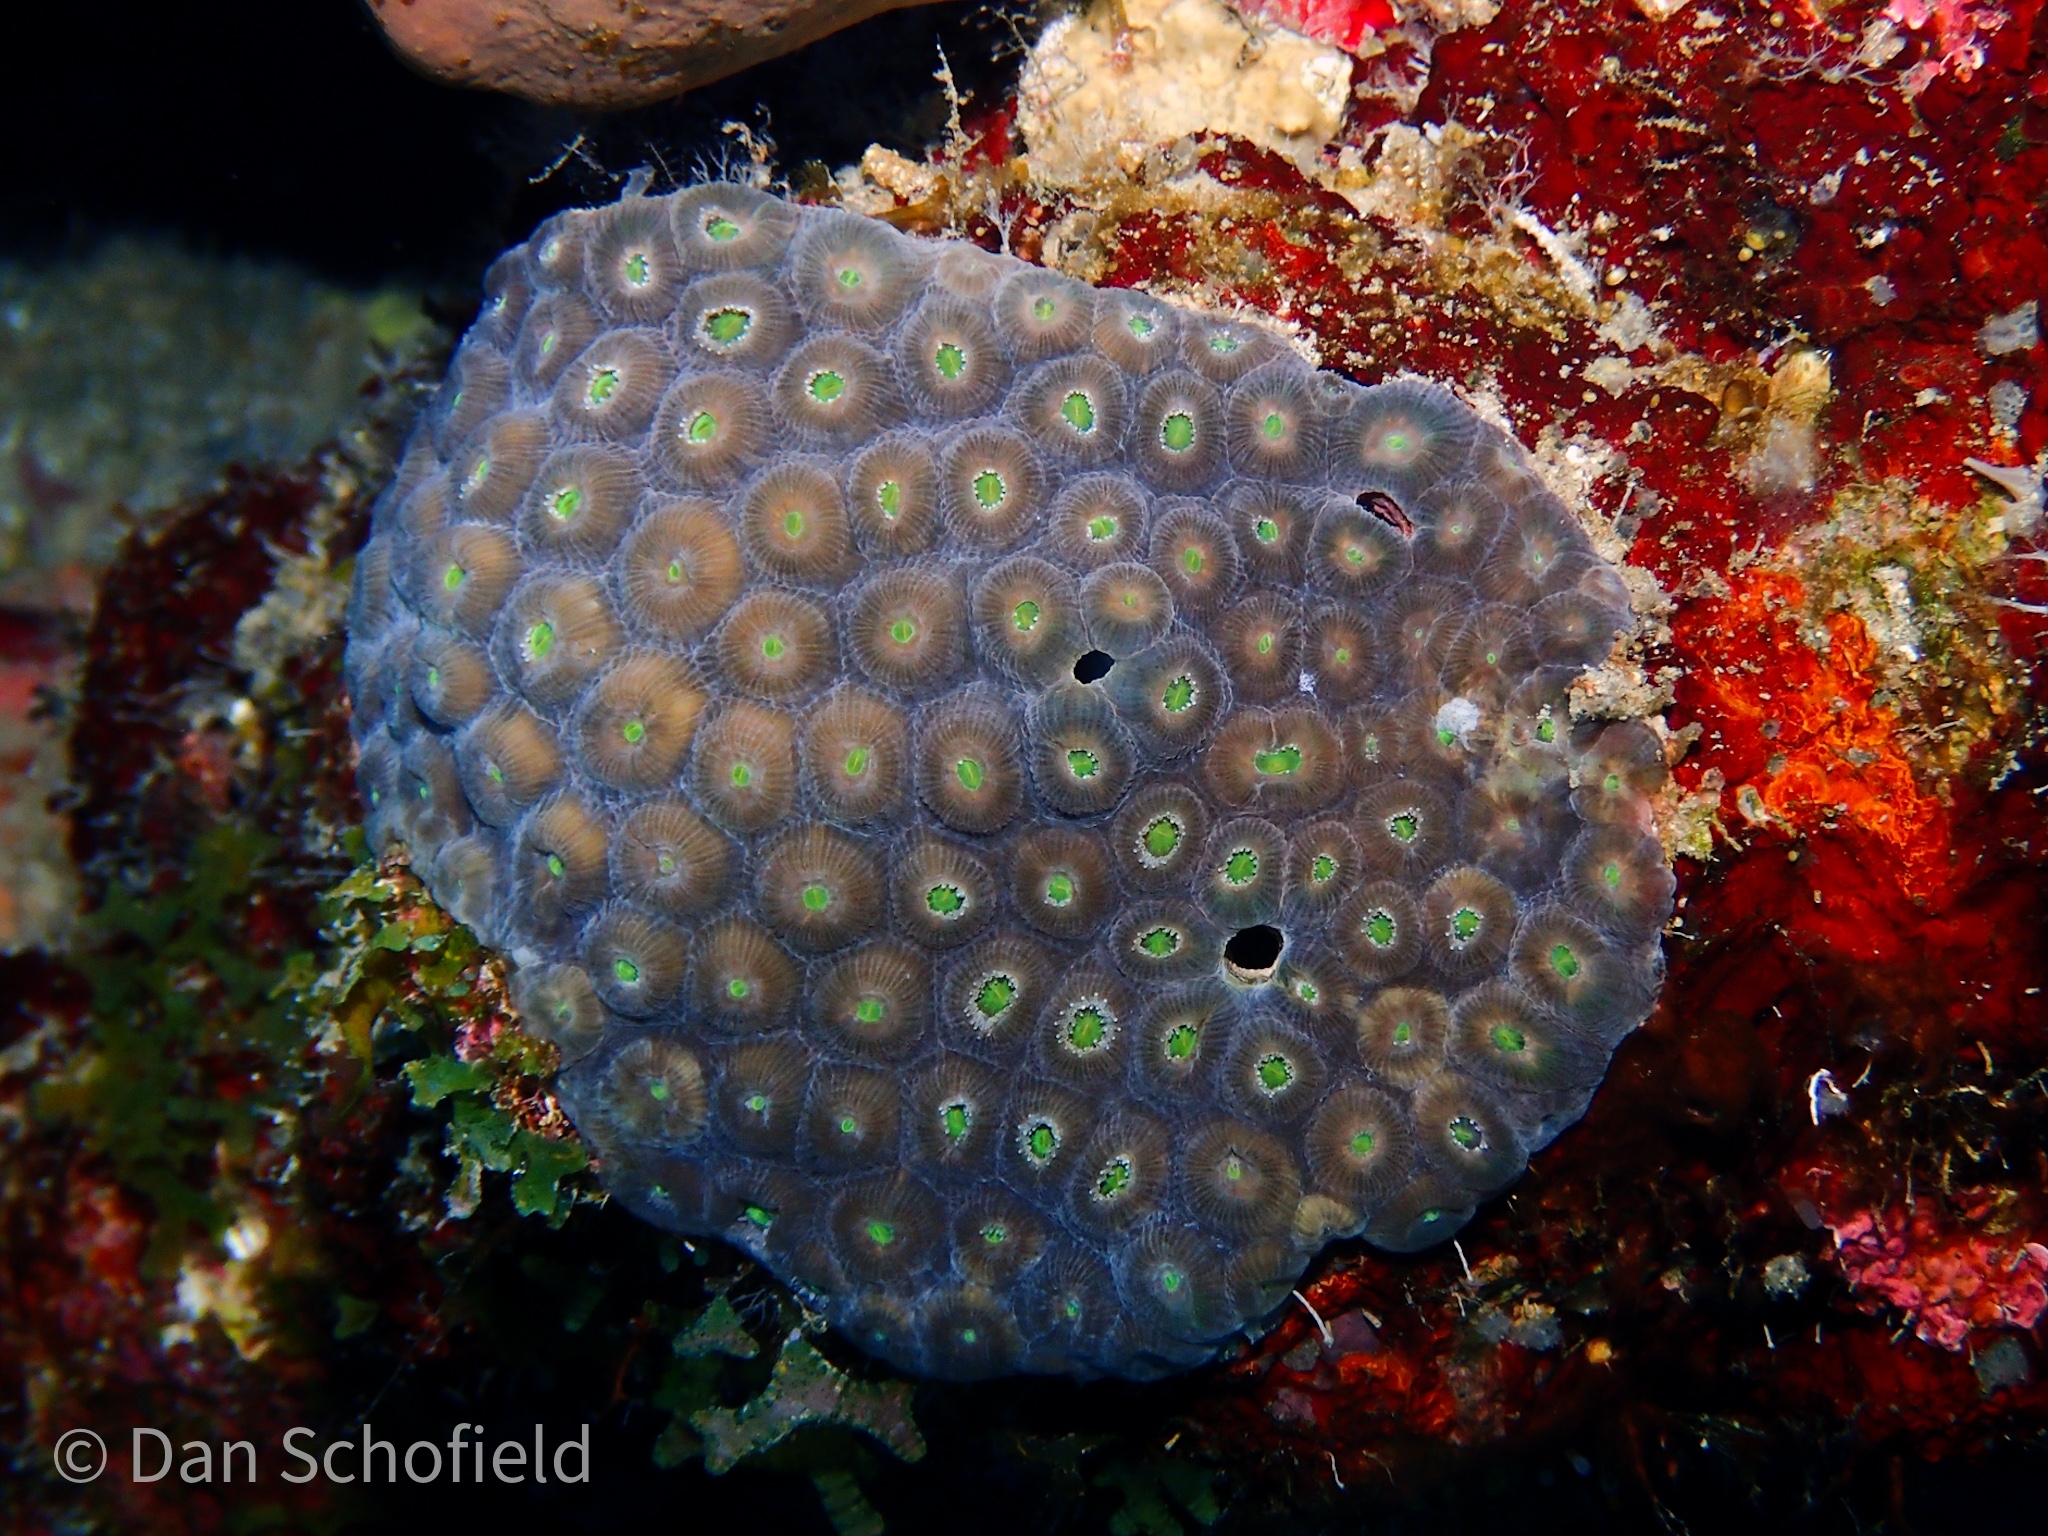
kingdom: Animalia
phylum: Cnidaria
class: Anthozoa
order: Scleractinia
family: Montastraeidae
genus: Montastraea
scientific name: Montastraea cavernosa
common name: Great star coral
